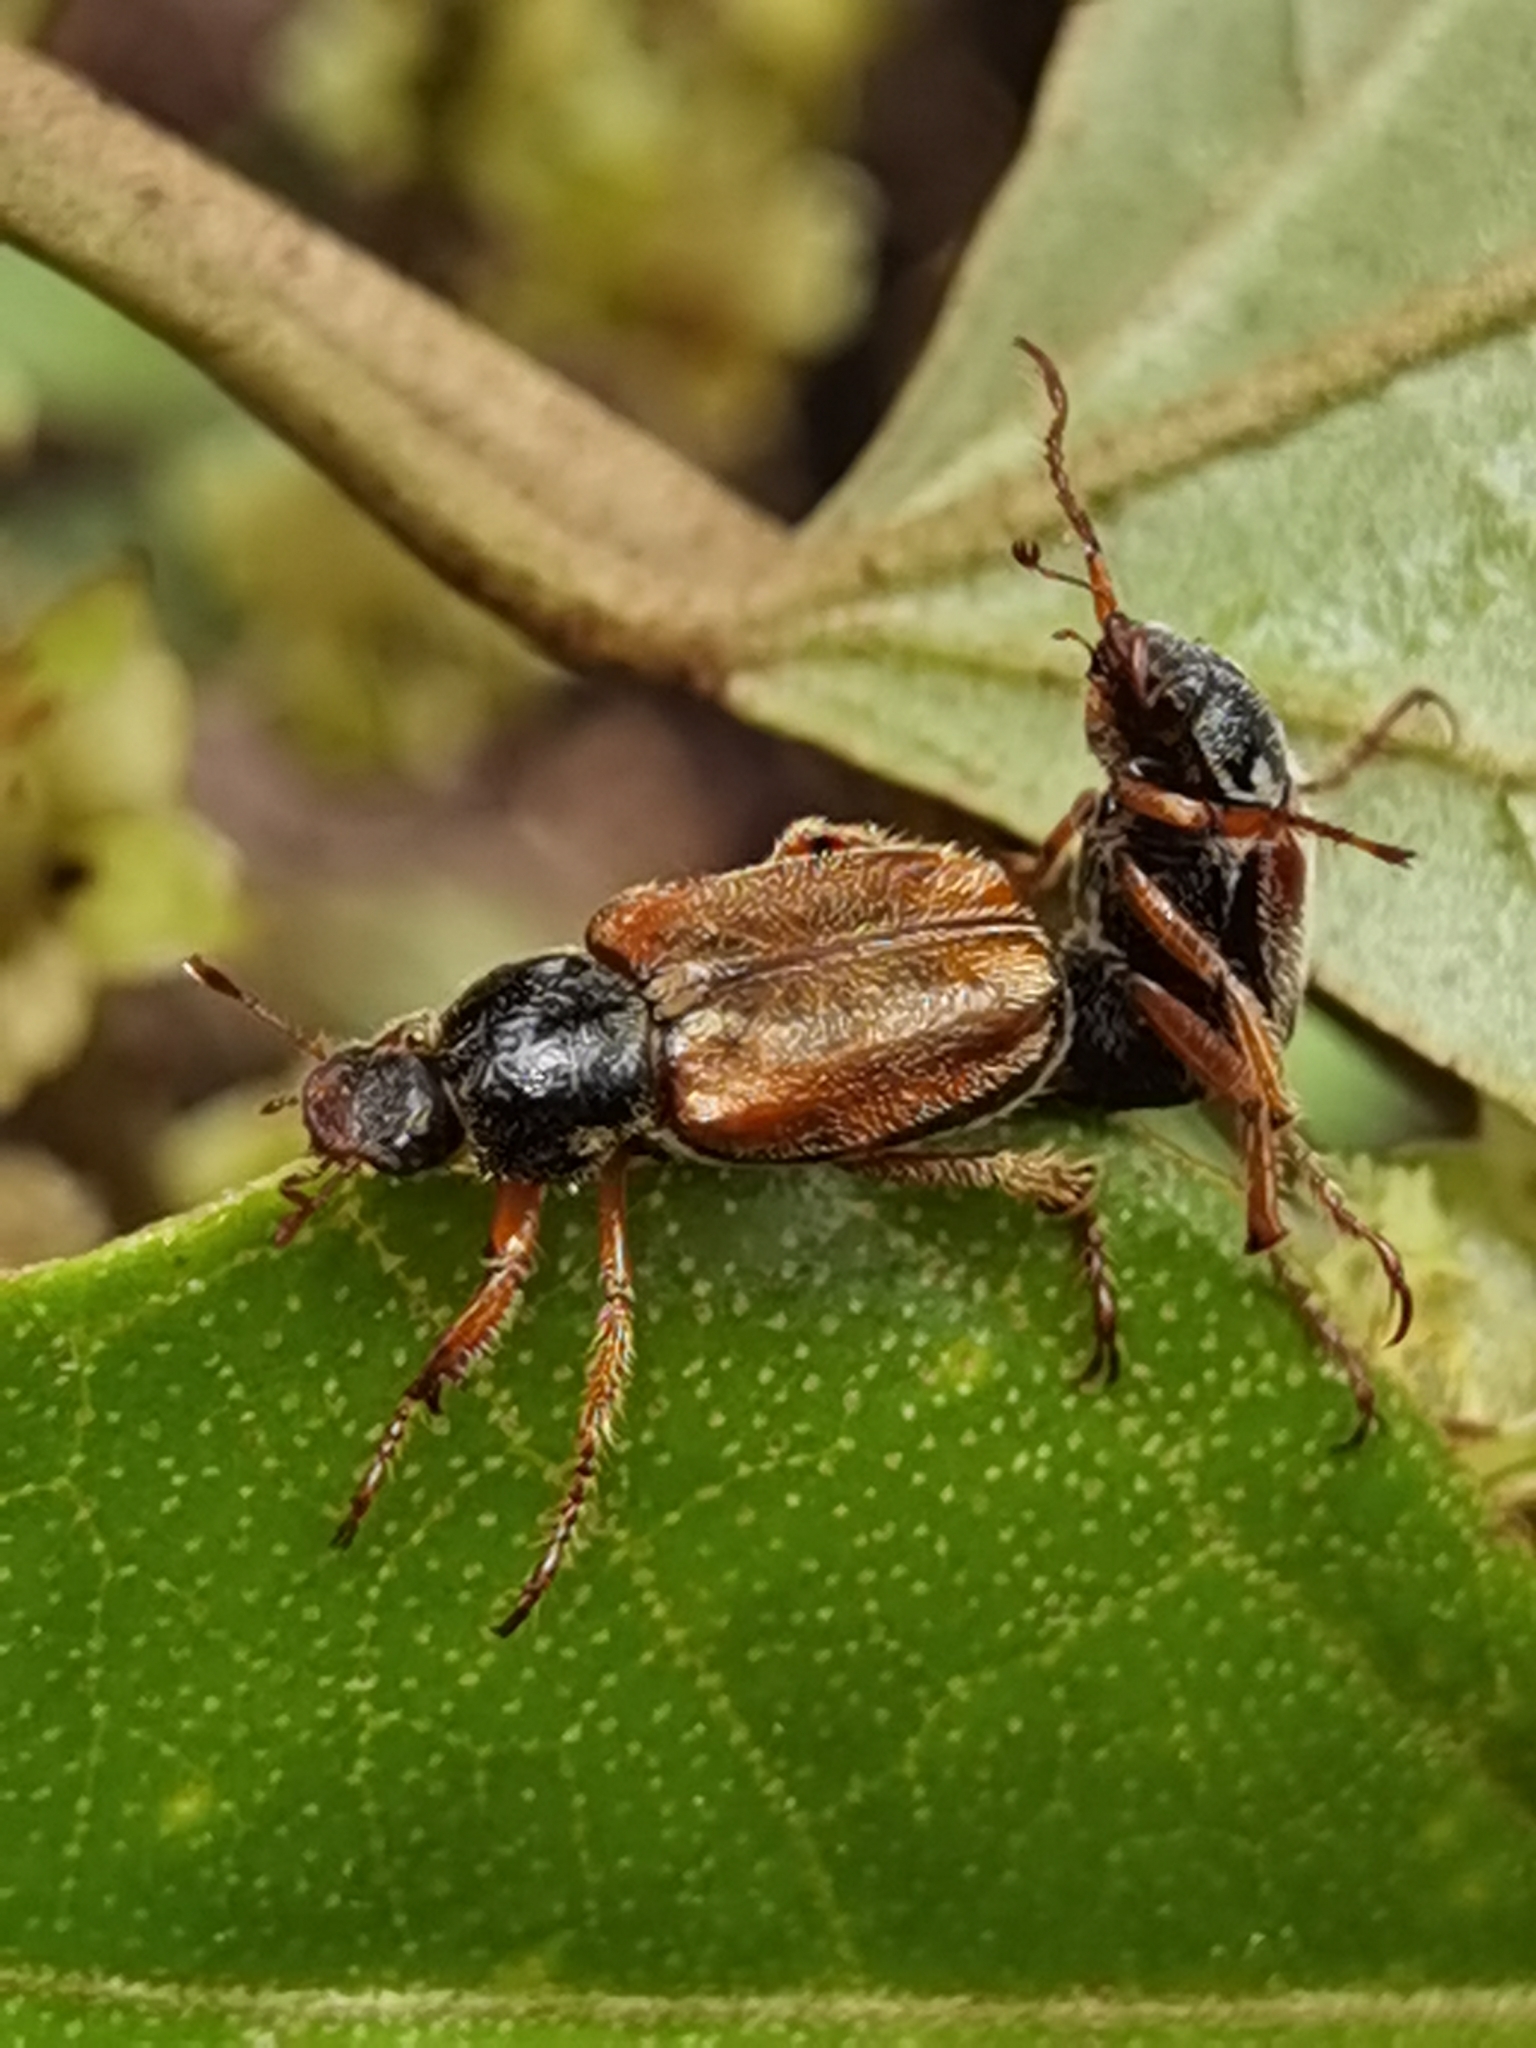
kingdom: Animalia
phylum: Arthropoda
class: Insecta
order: Coleoptera
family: Scarabaeidae
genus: Faula
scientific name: Faula brunneipennis
